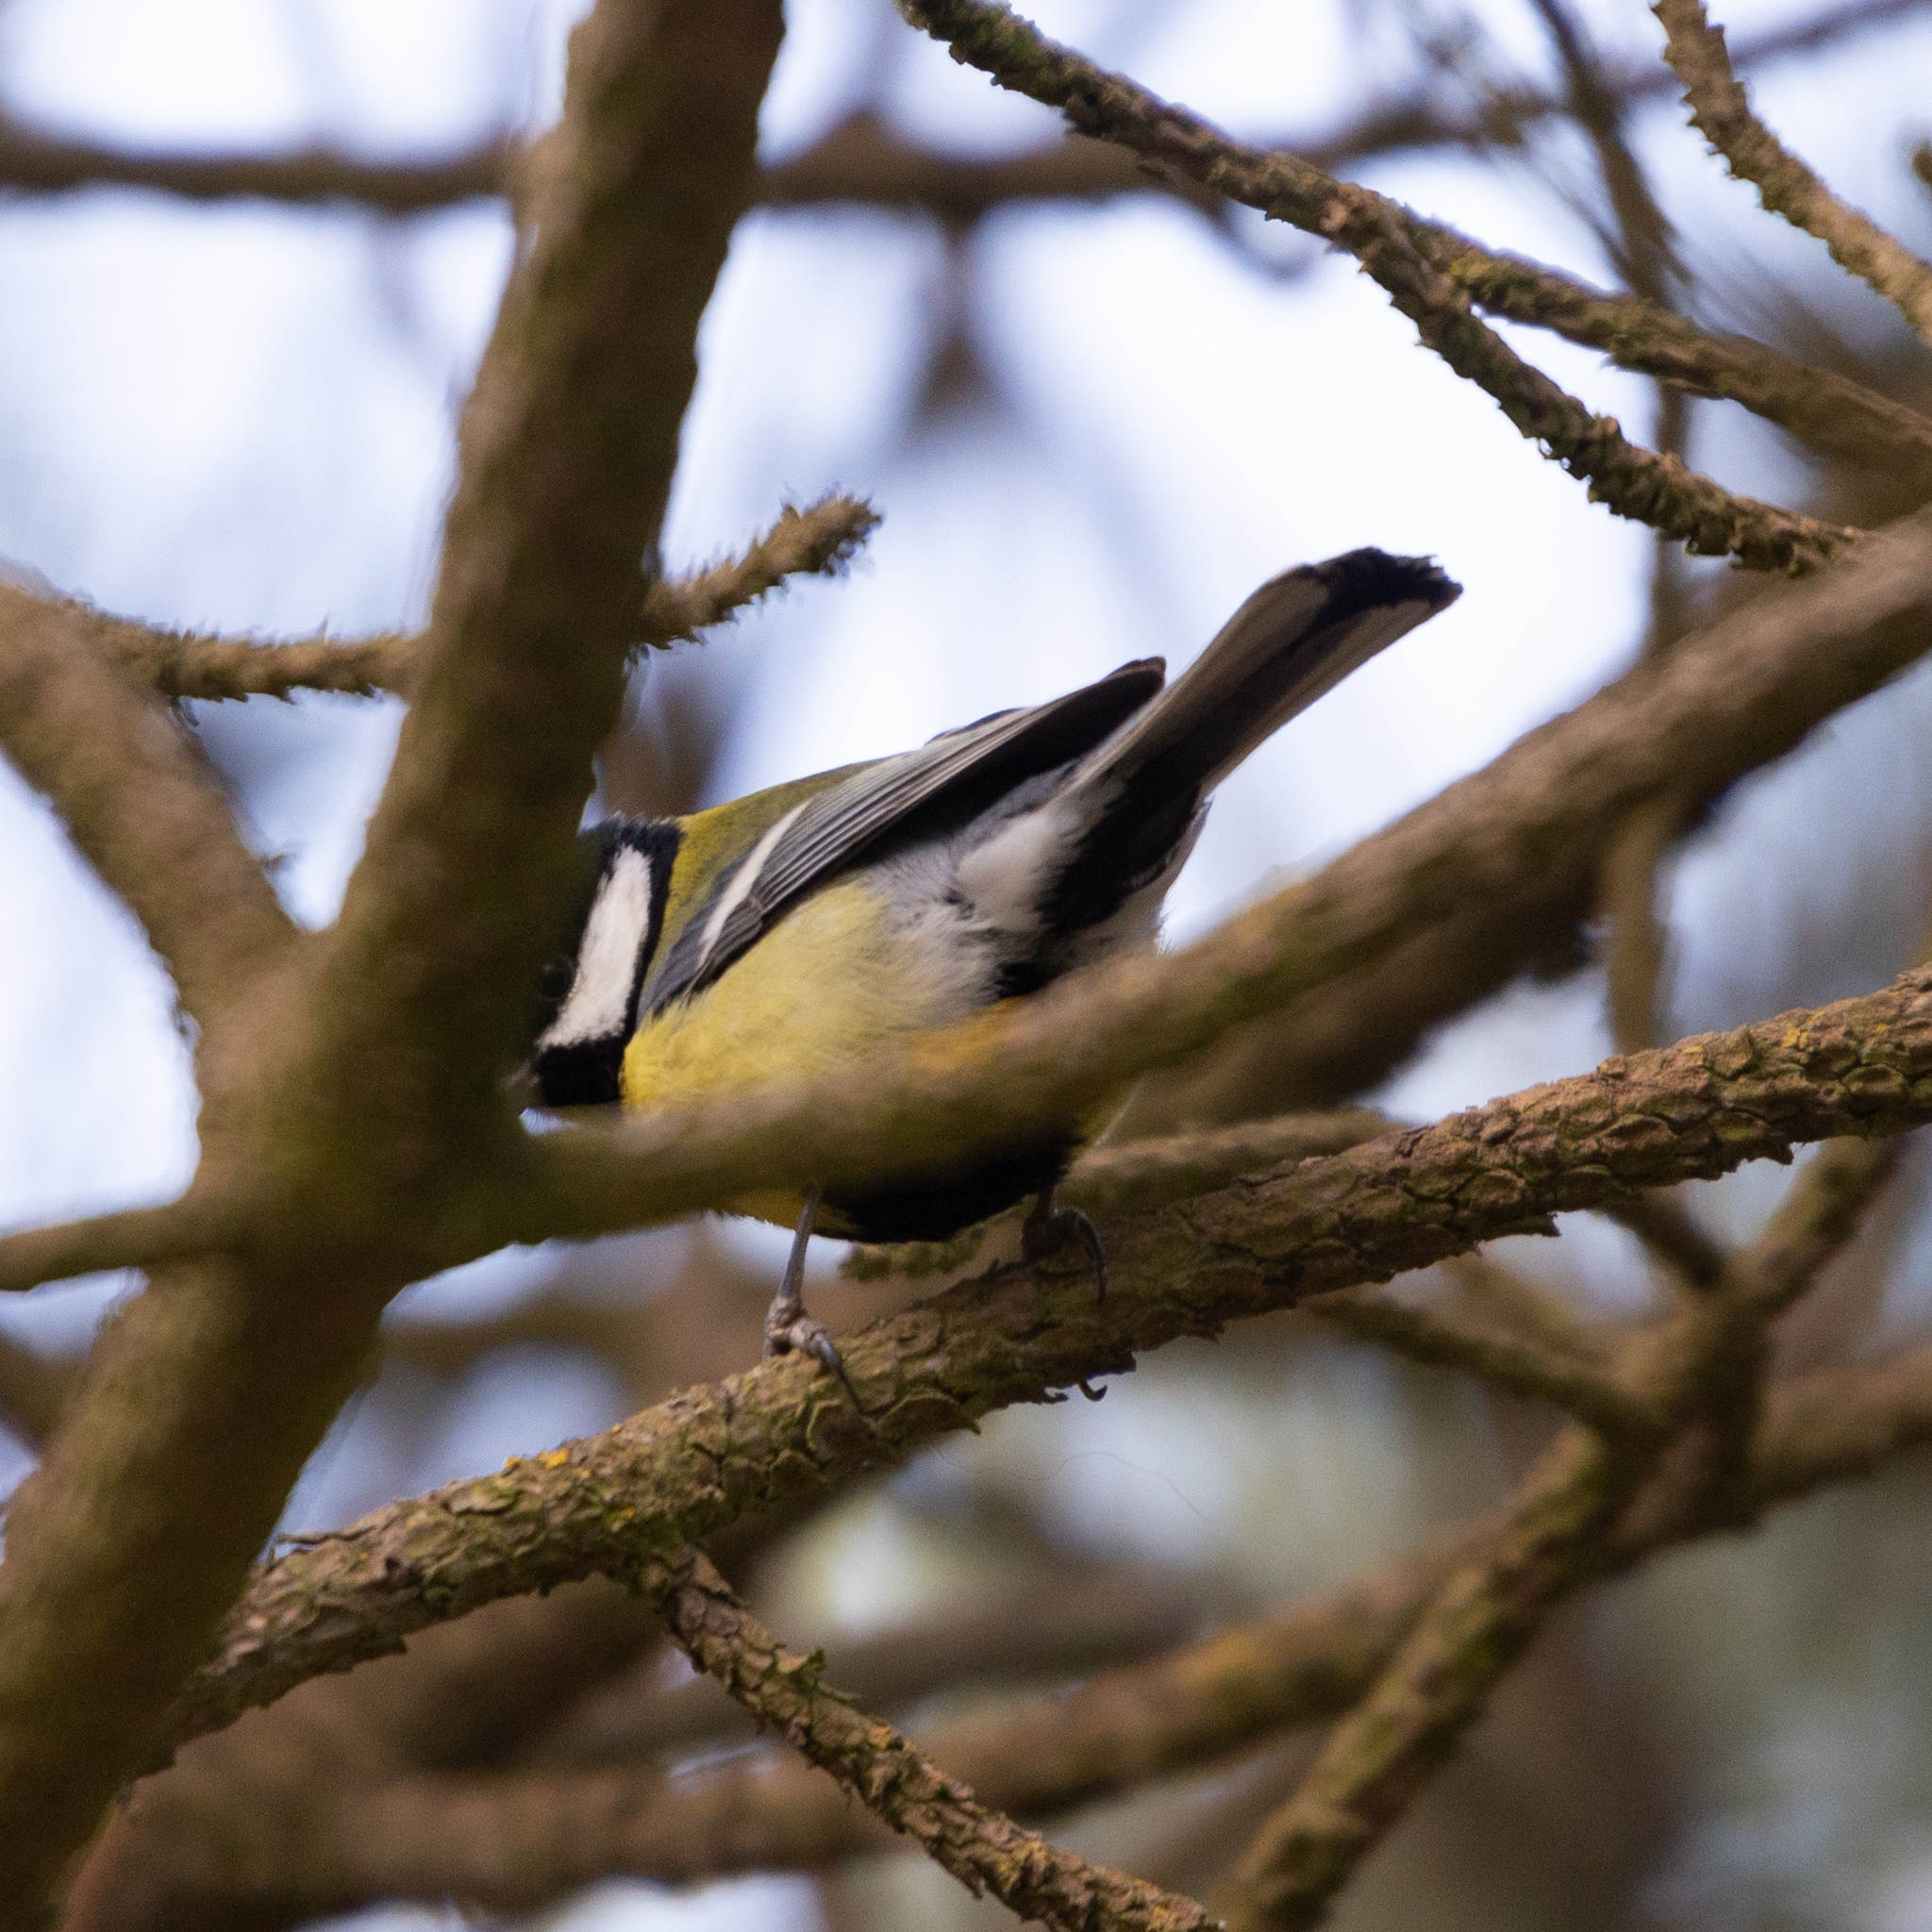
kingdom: Animalia
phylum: Chordata
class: Aves
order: Passeriformes
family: Paridae
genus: Parus
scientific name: Parus major
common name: Great tit
